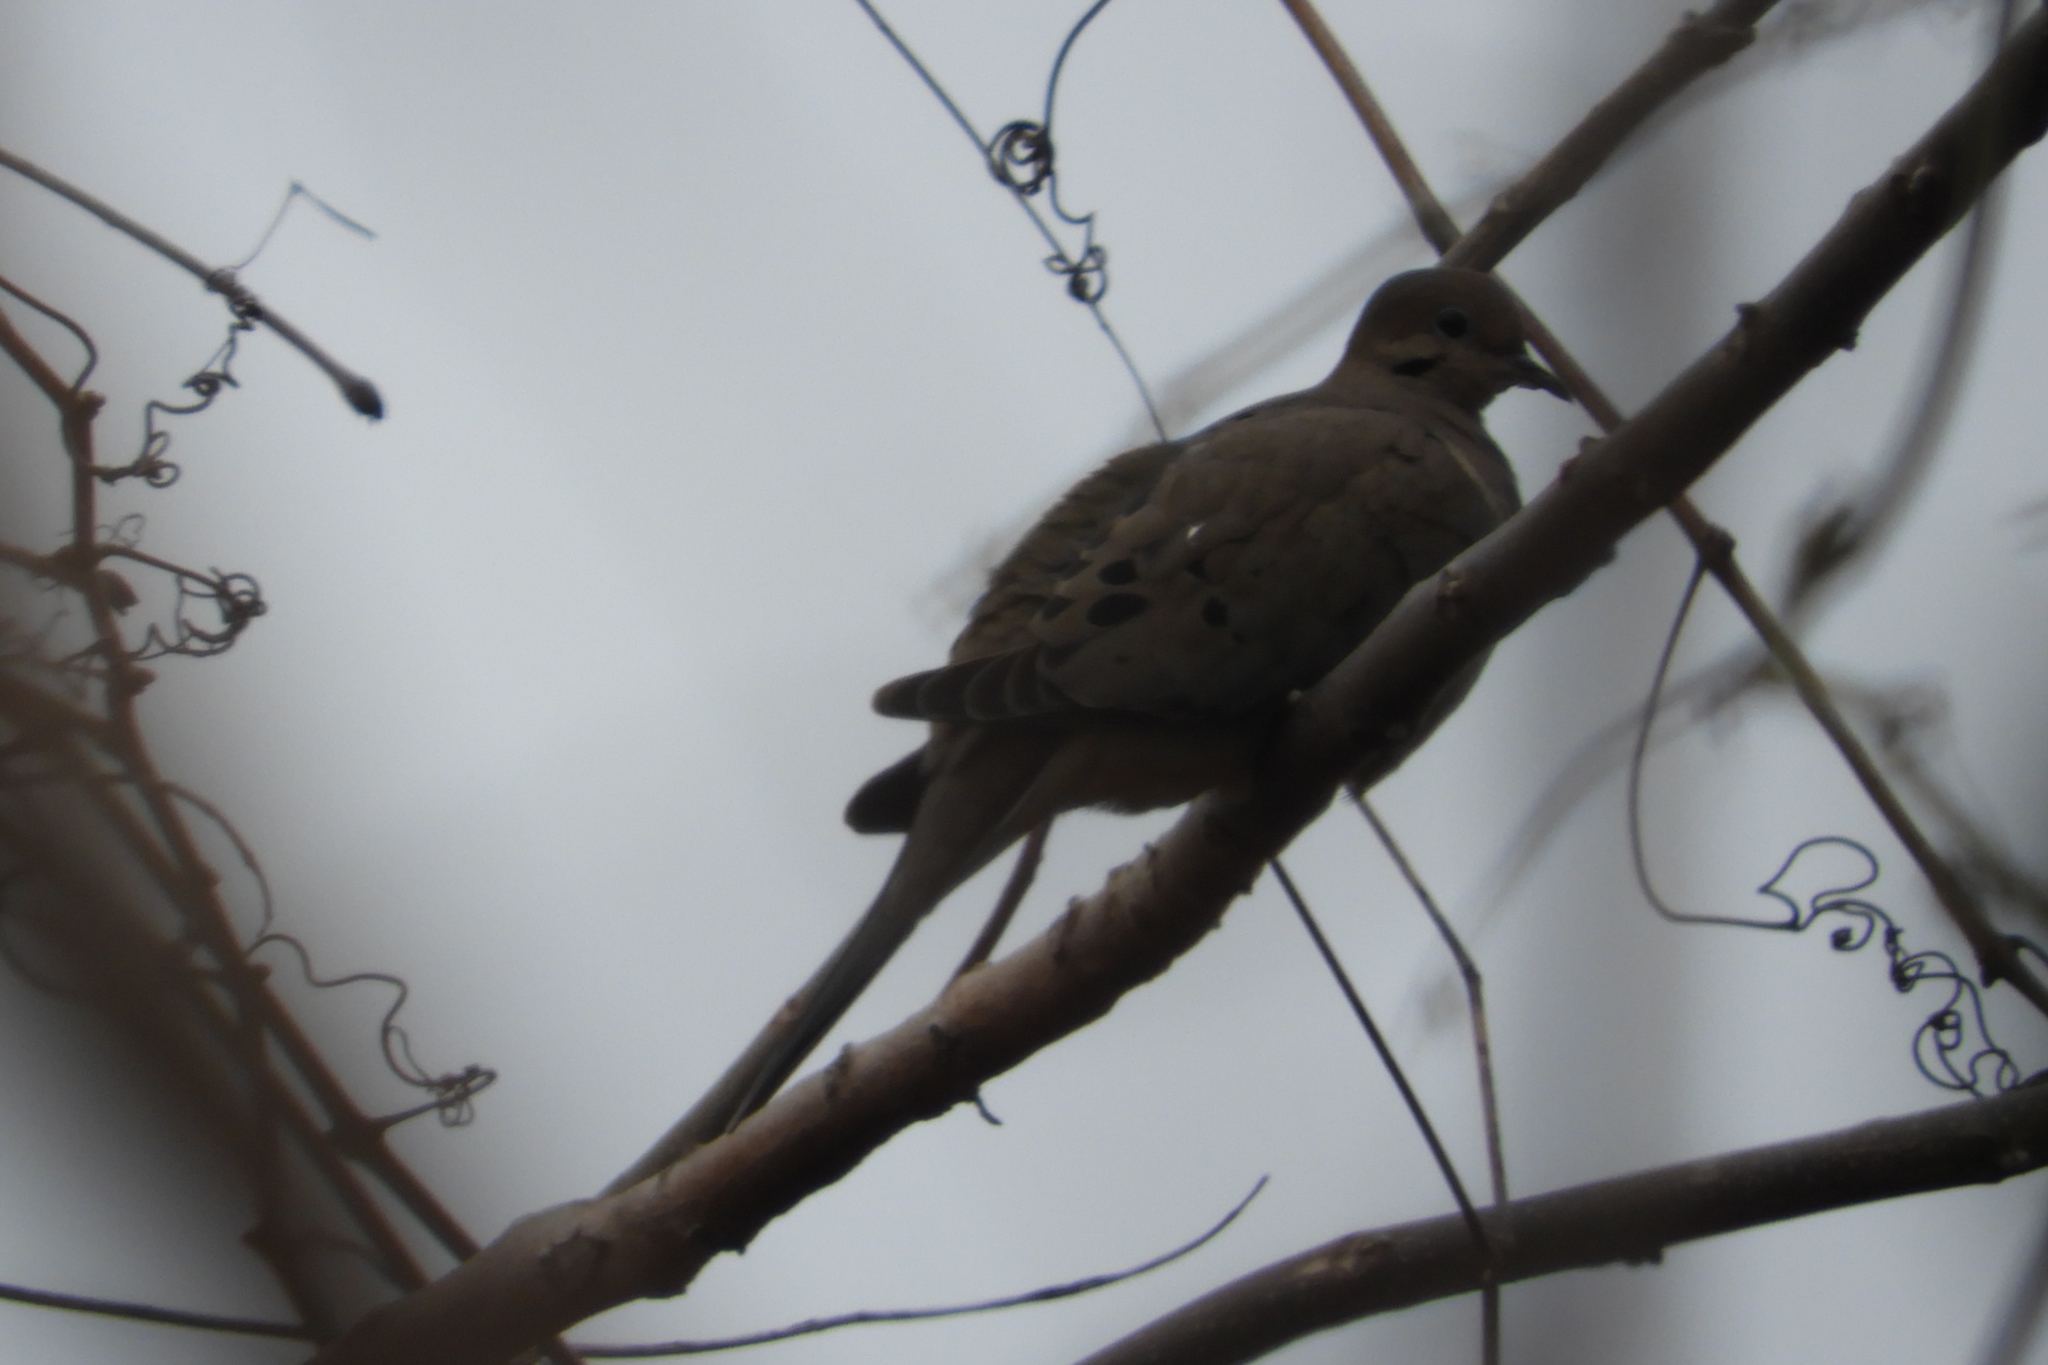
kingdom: Animalia
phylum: Chordata
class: Aves
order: Columbiformes
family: Columbidae
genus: Zenaida
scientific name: Zenaida macroura
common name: Mourning dove
